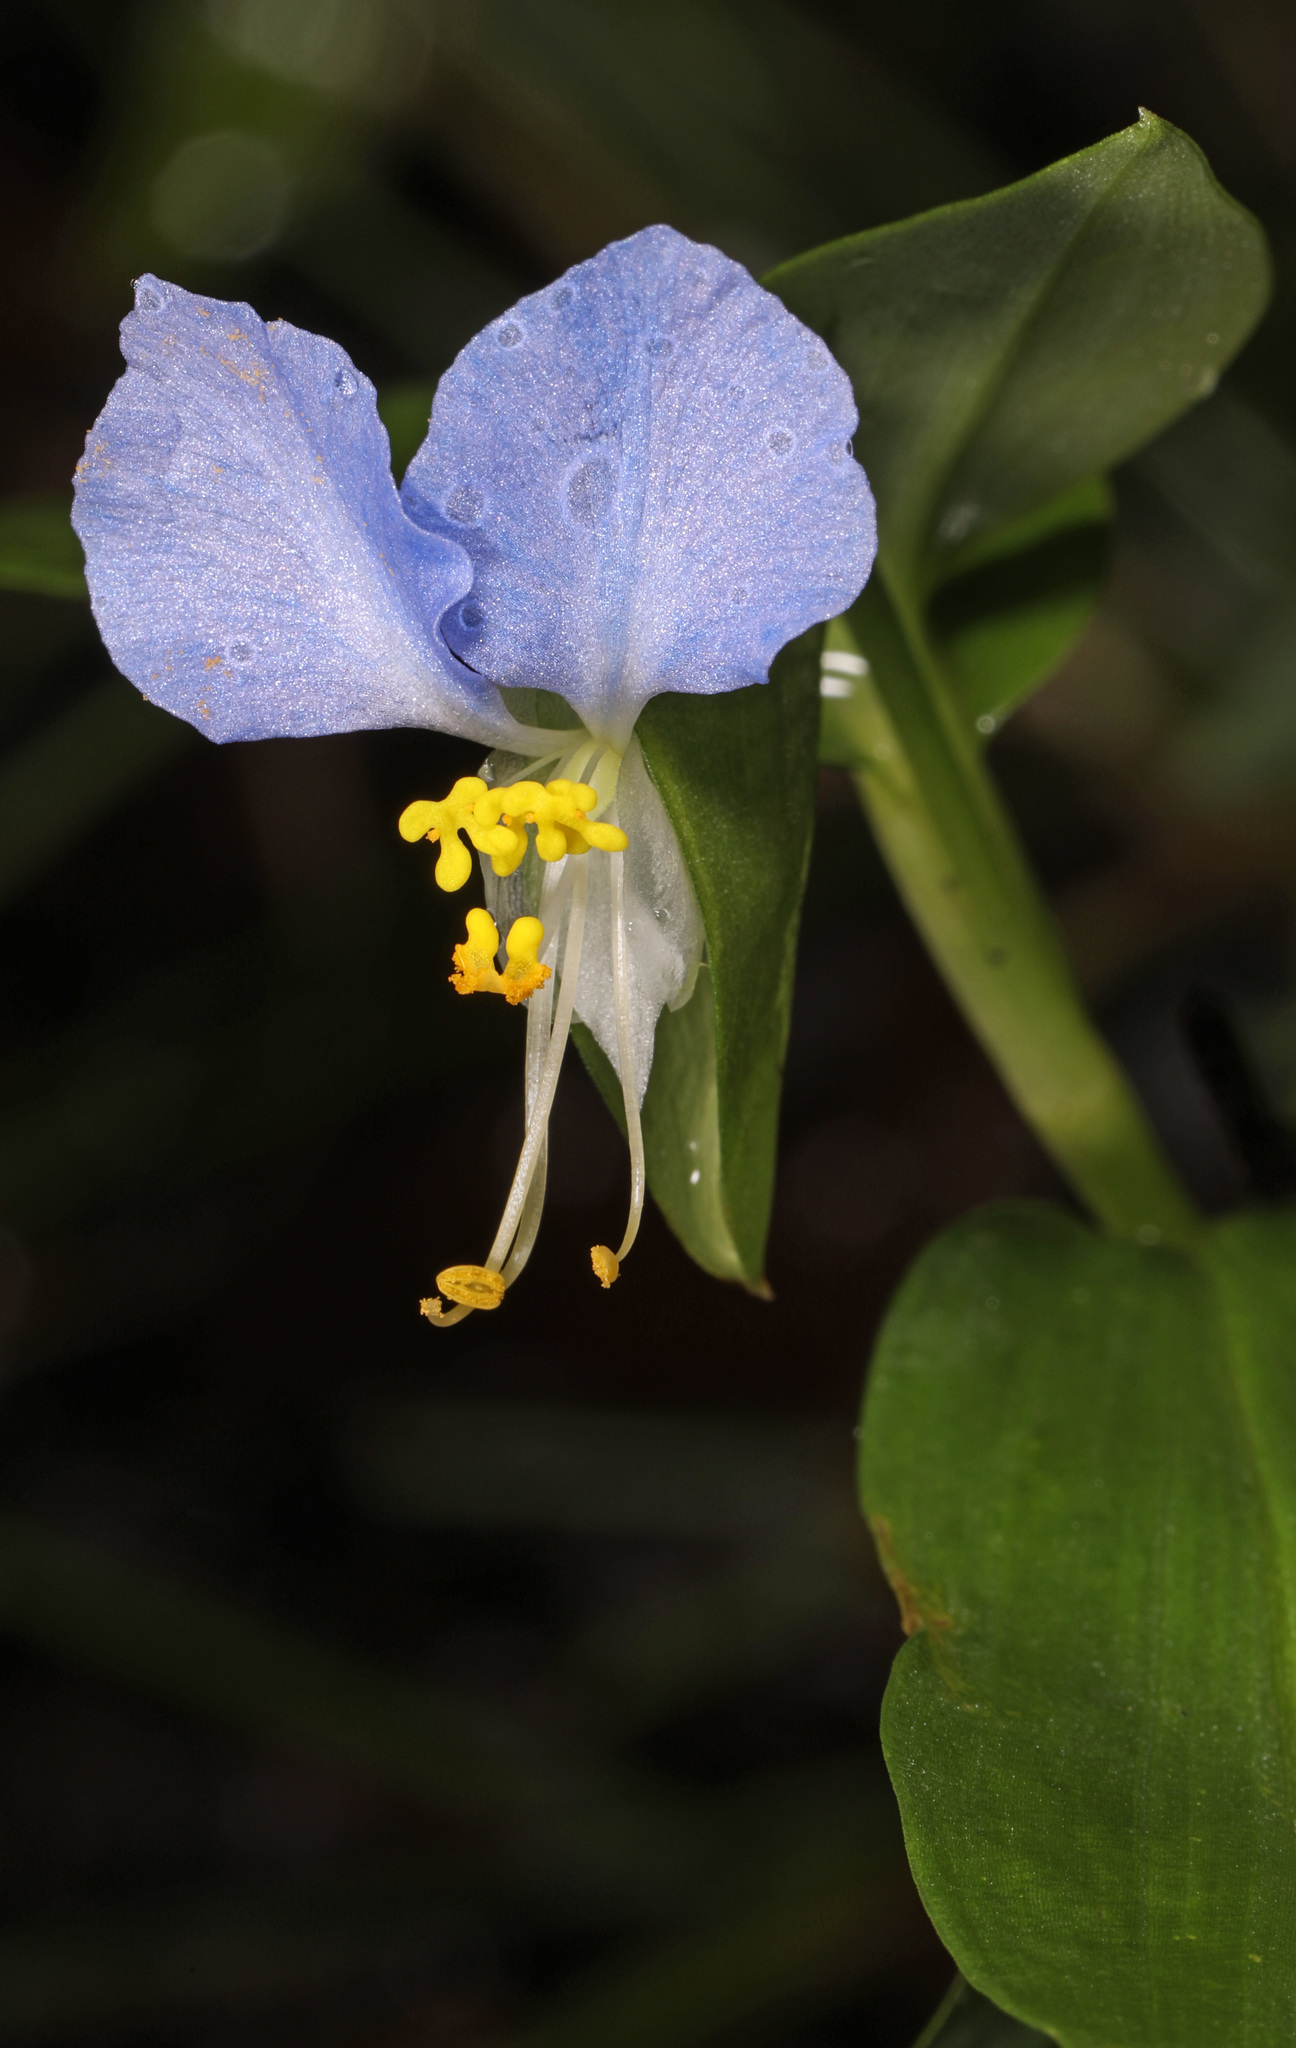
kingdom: Plantae
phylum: Tracheophyta
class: Liliopsida
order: Commelinales
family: Commelinaceae
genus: Commelina
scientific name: Commelina communis
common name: Asiatic dayflower
